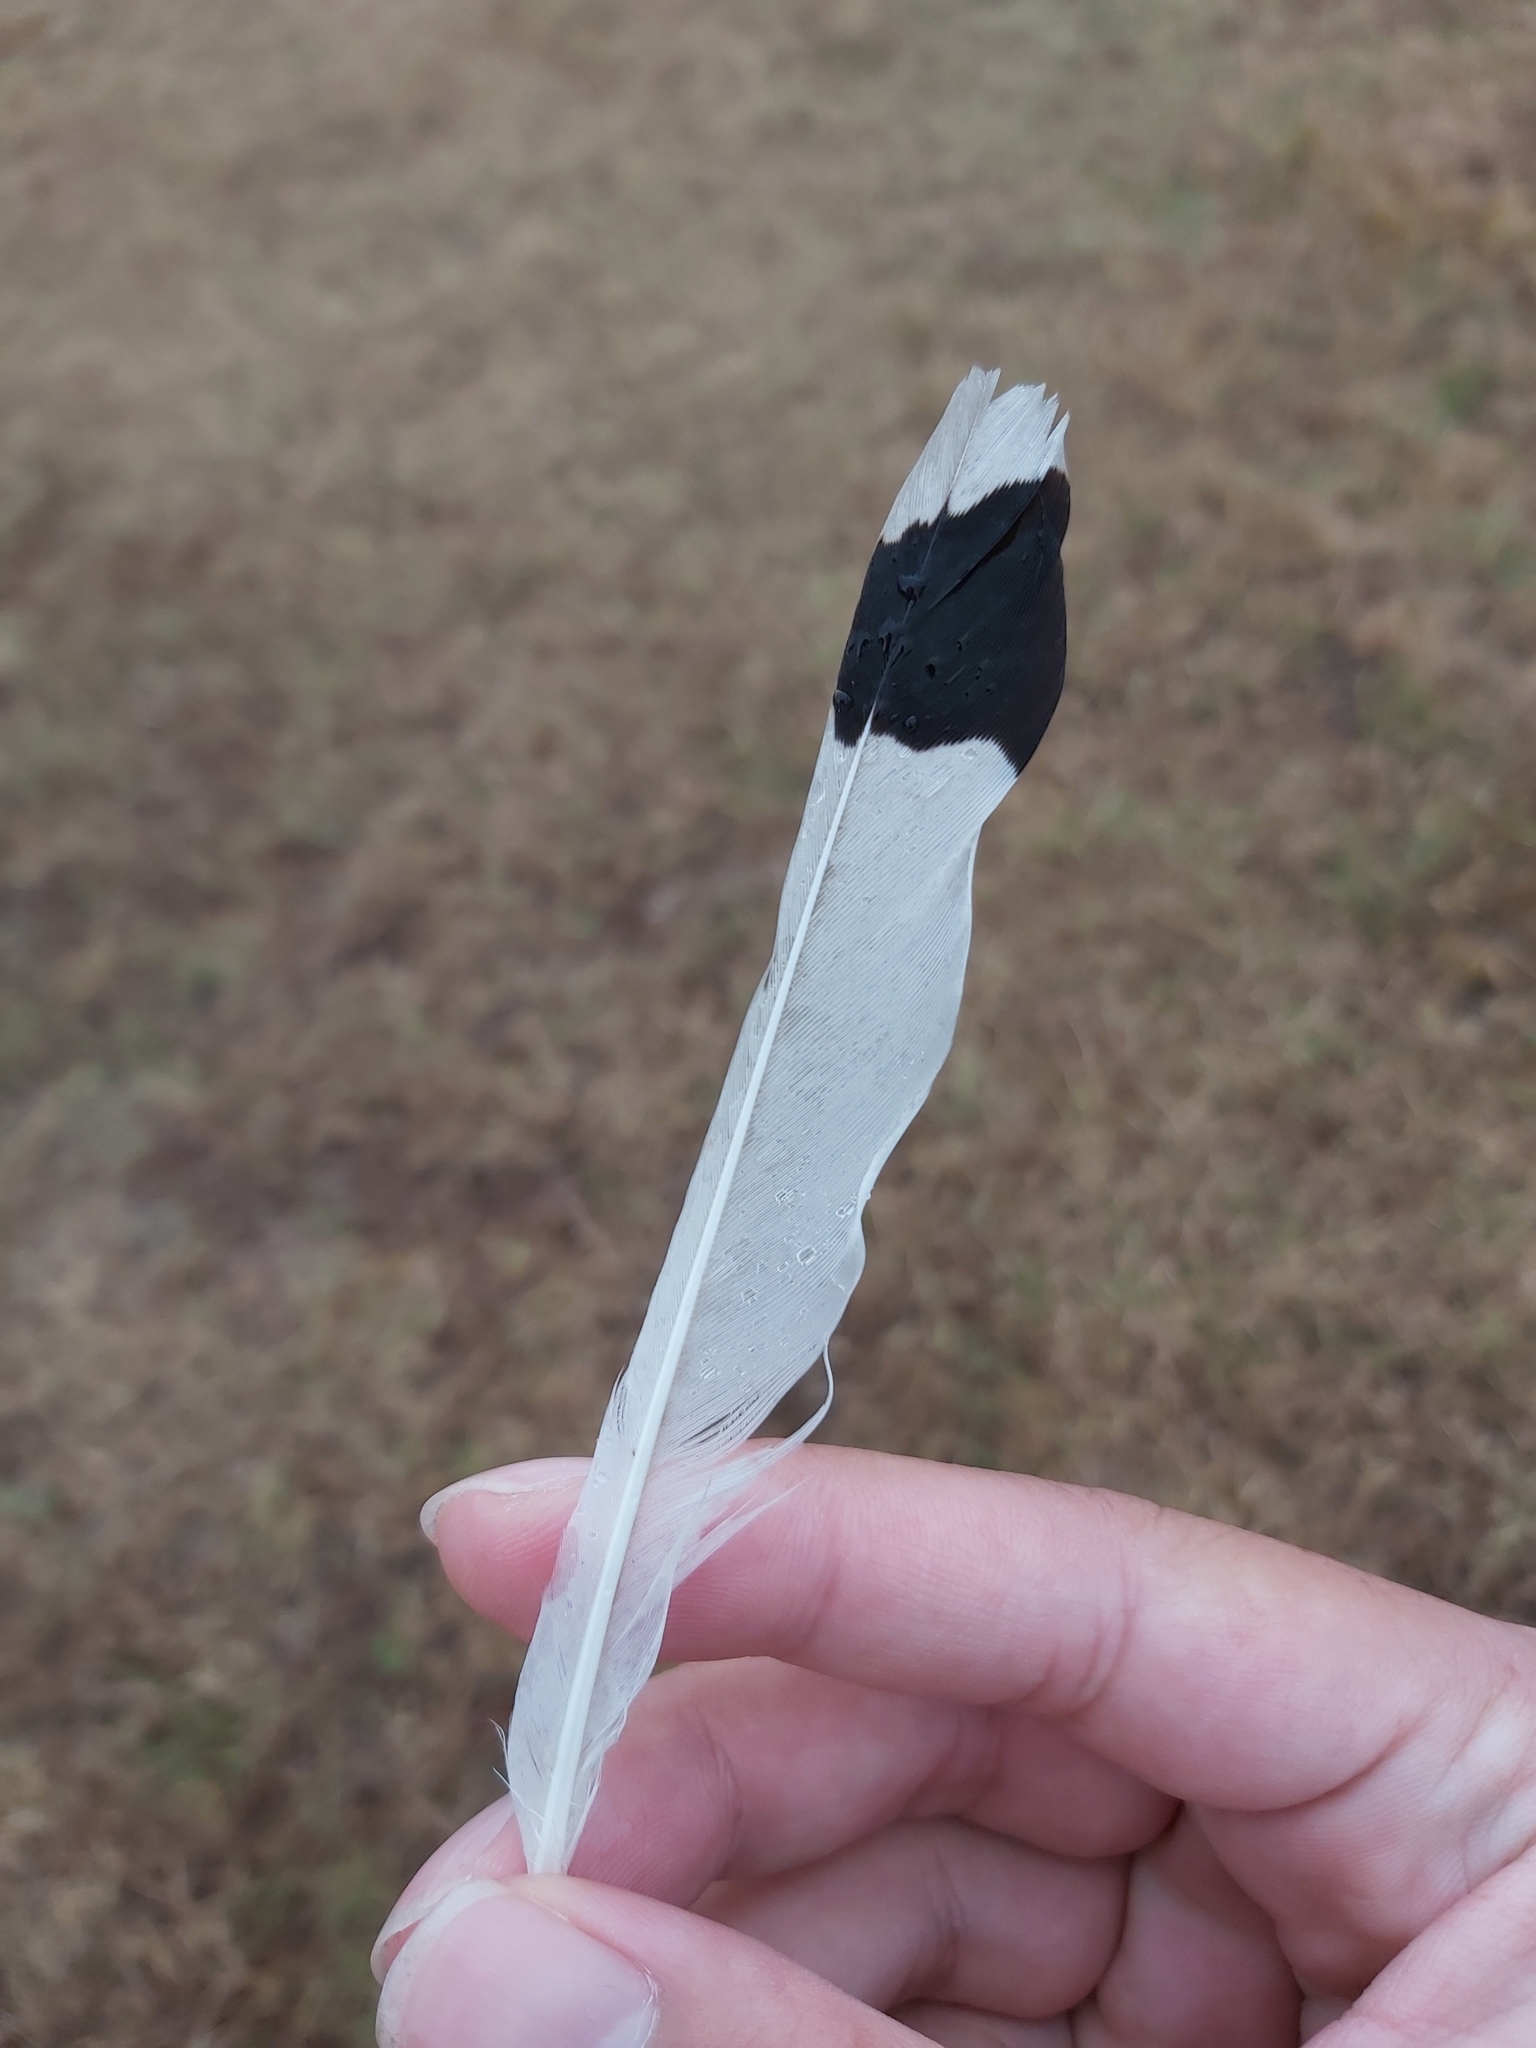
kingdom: Animalia
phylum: Chordata
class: Aves
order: Passeriformes
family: Monarchidae
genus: Grallina
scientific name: Grallina cyanoleuca
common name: Magpie-lark
